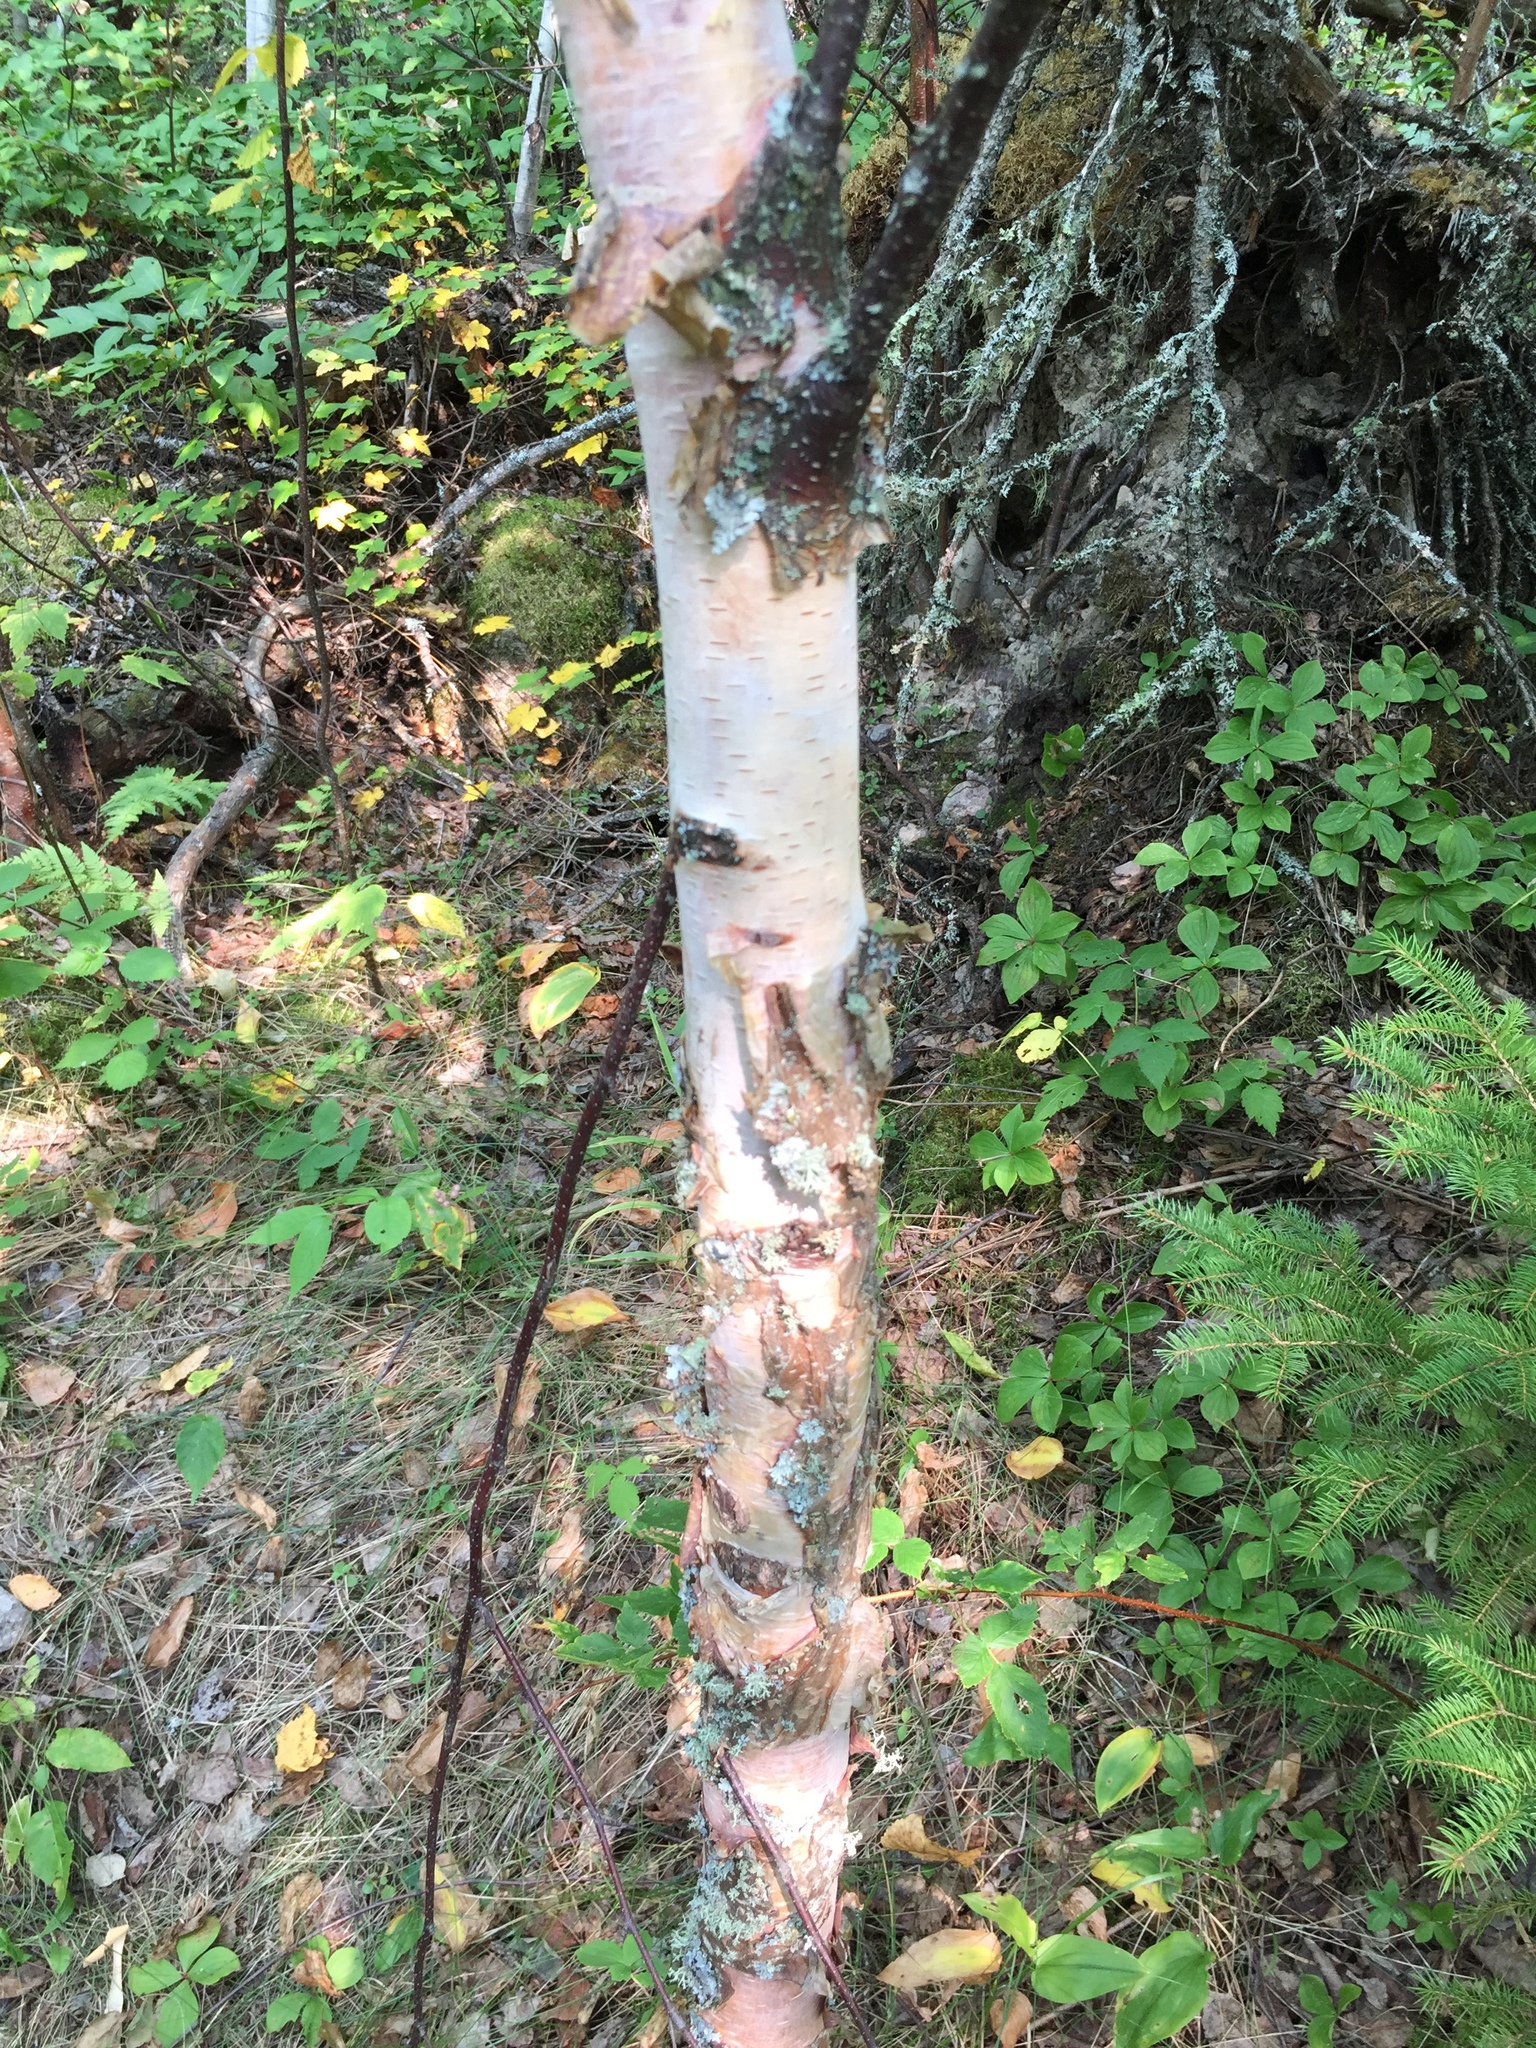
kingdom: Plantae
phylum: Tracheophyta
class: Magnoliopsida
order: Fagales
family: Betulaceae
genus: Betula
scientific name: Betula papyrifera
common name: Paper birch
